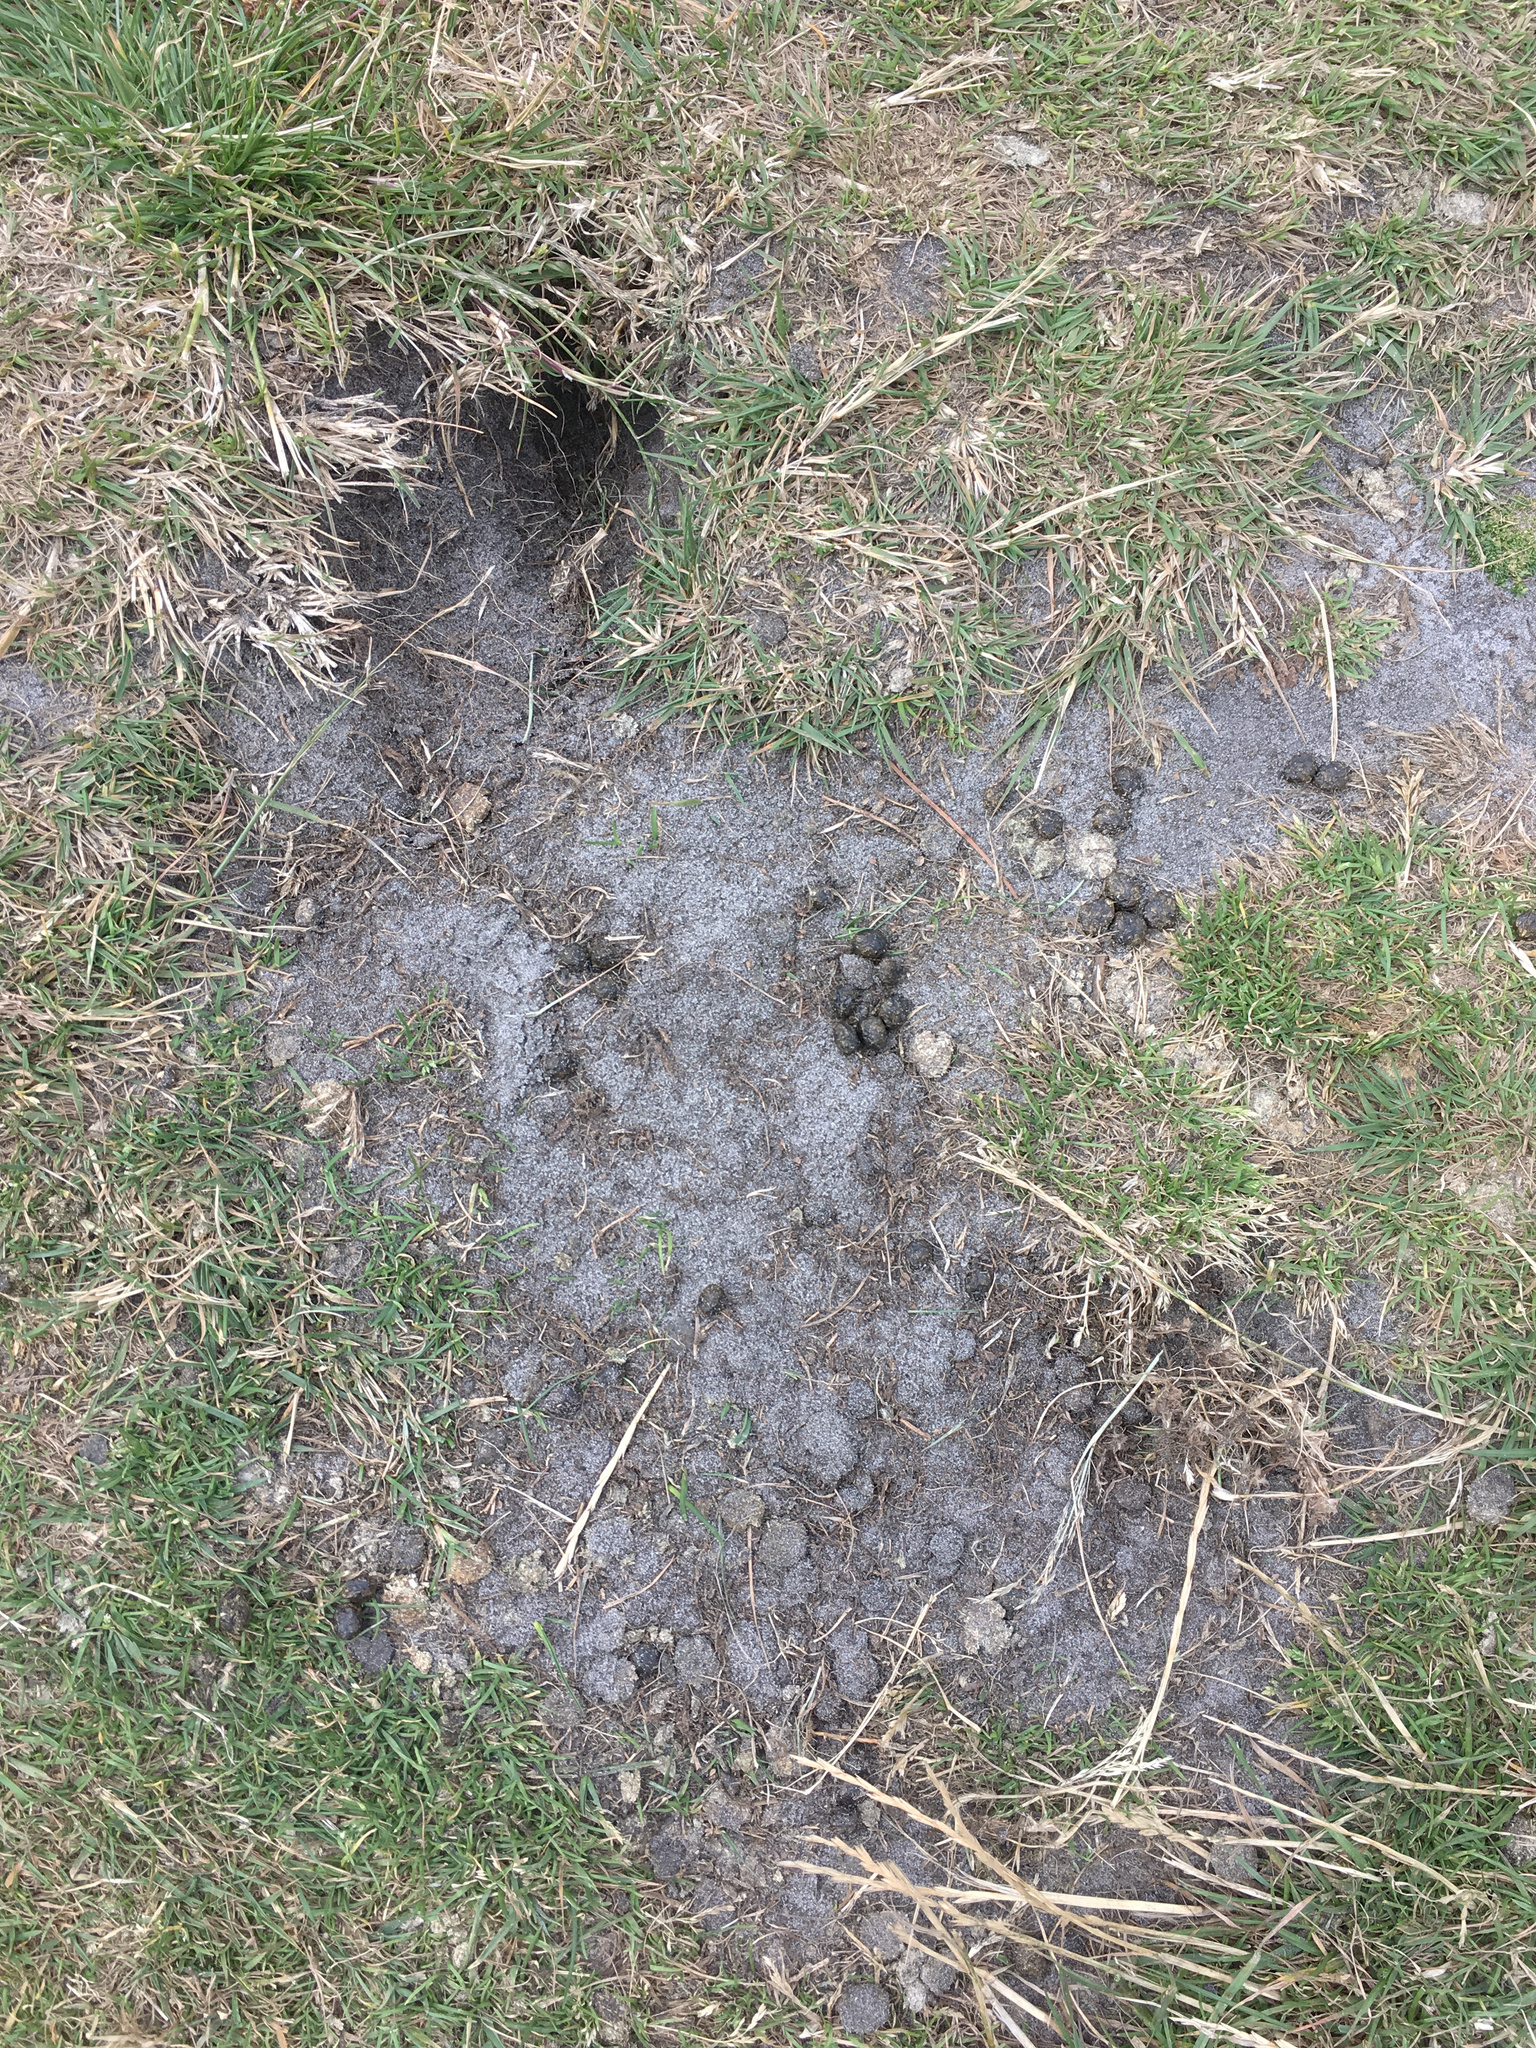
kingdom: Animalia
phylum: Chordata
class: Mammalia
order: Lagomorpha
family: Leporidae
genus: Oryctolagus
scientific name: Oryctolagus cuniculus
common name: European rabbit
